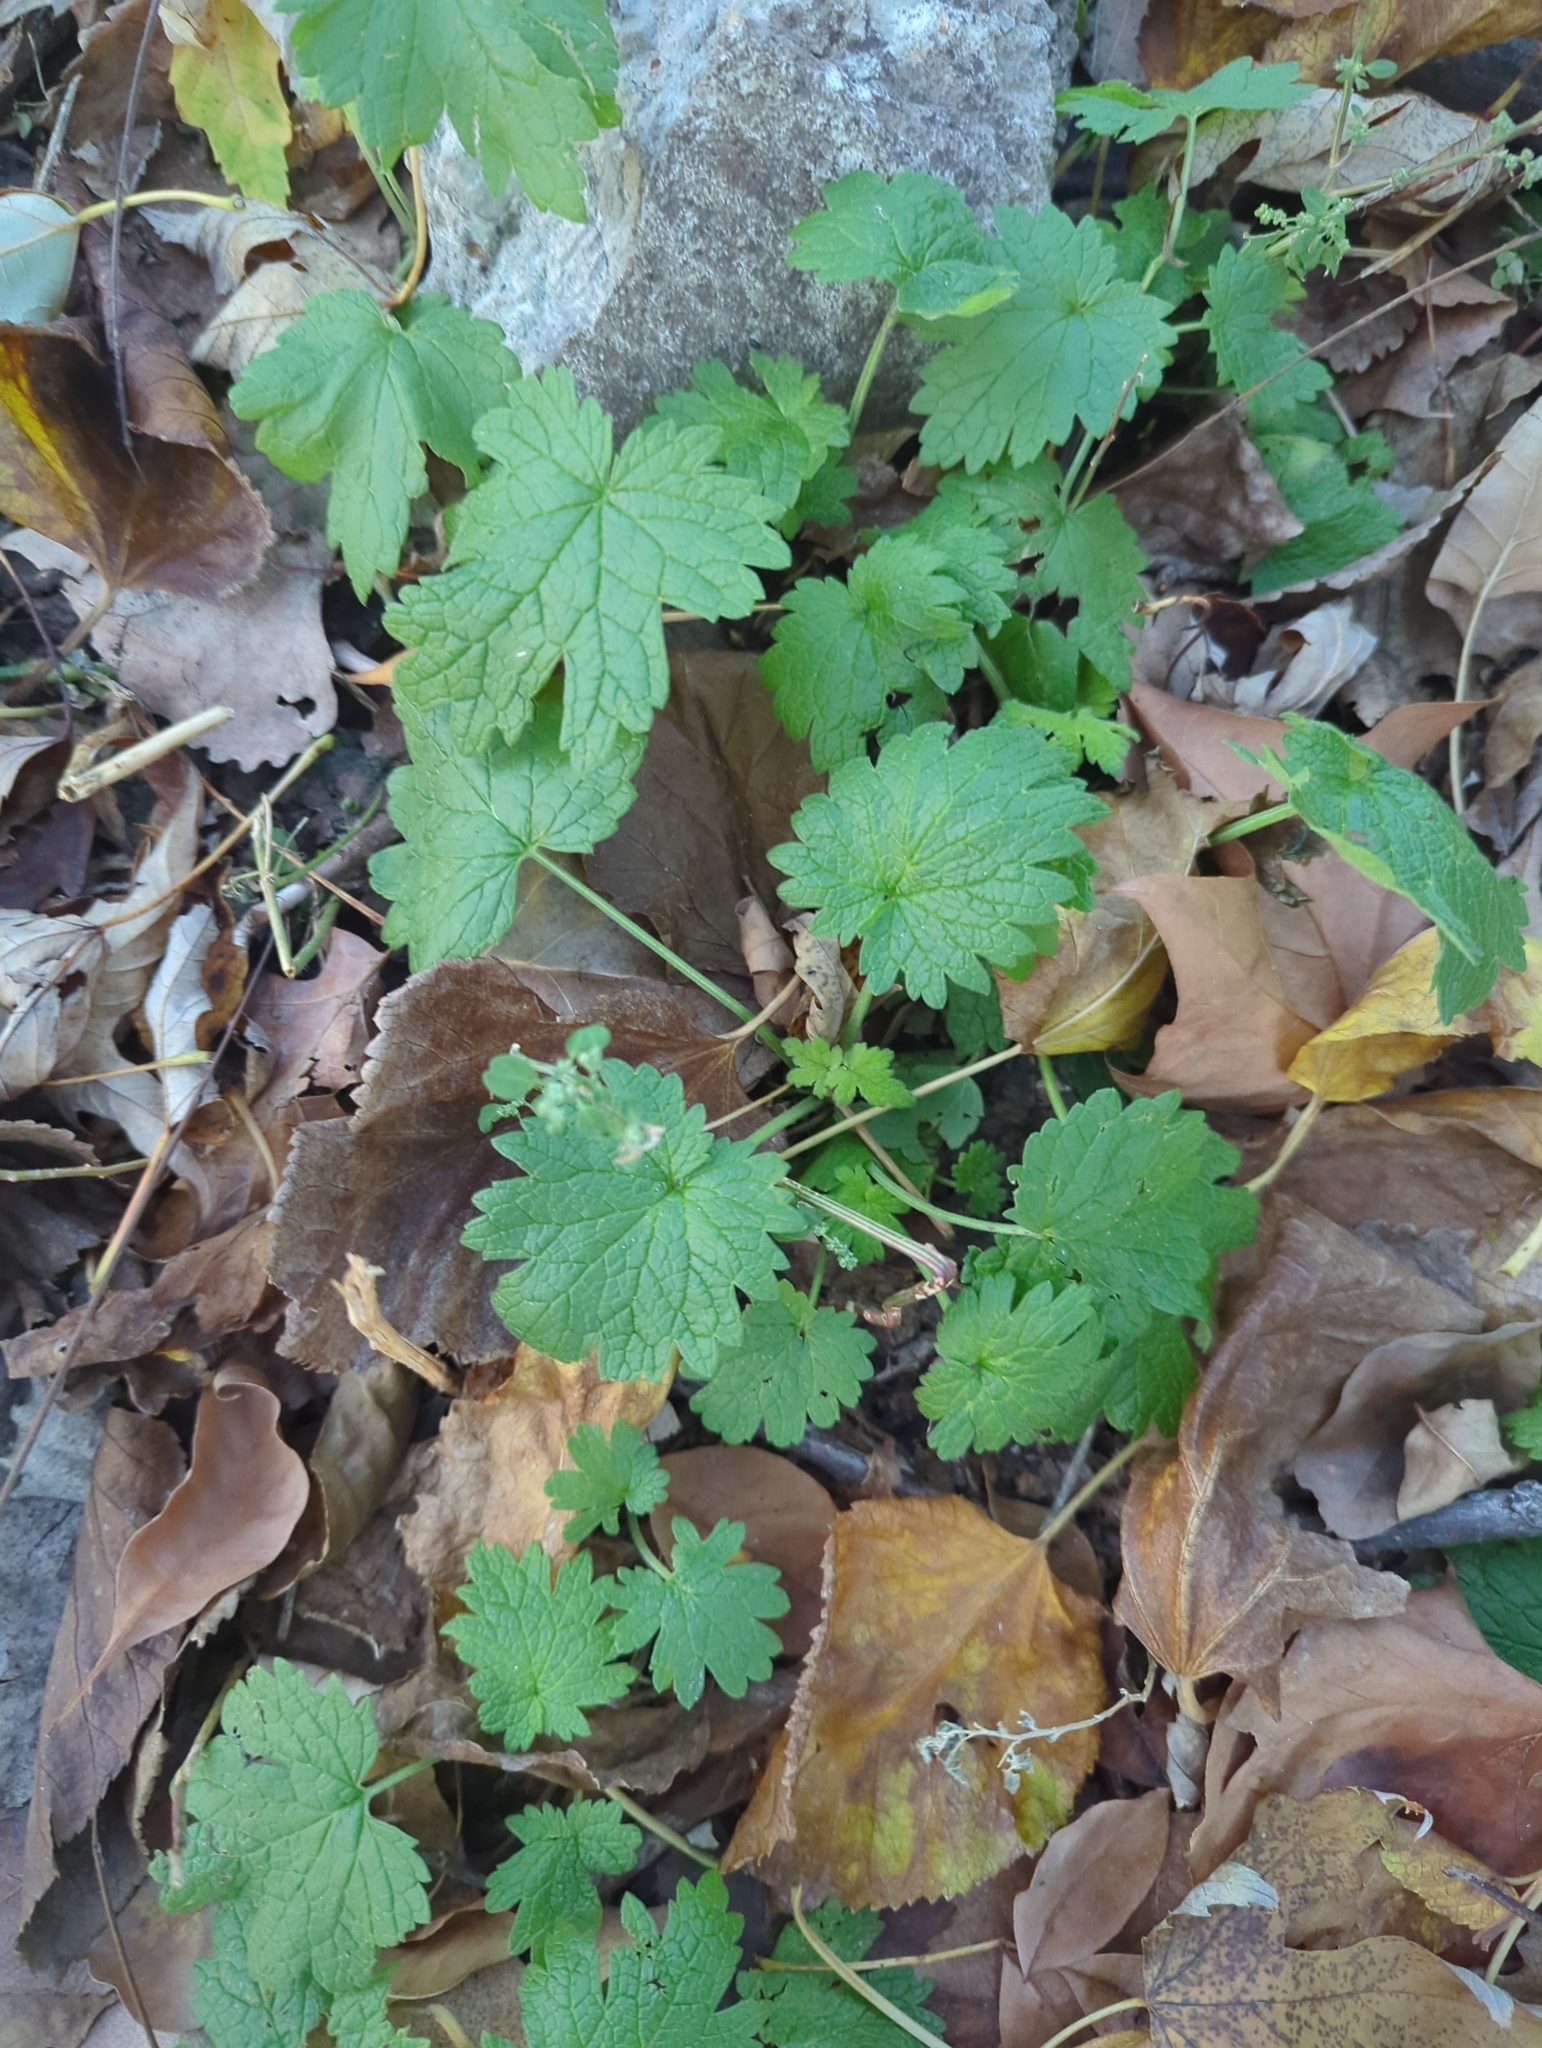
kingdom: Plantae
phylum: Tracheophyta
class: Magnoliopsida
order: Lamiales
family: Lamiaceae
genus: Leonurus
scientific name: Leonurus cardiaca
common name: Motherwort
